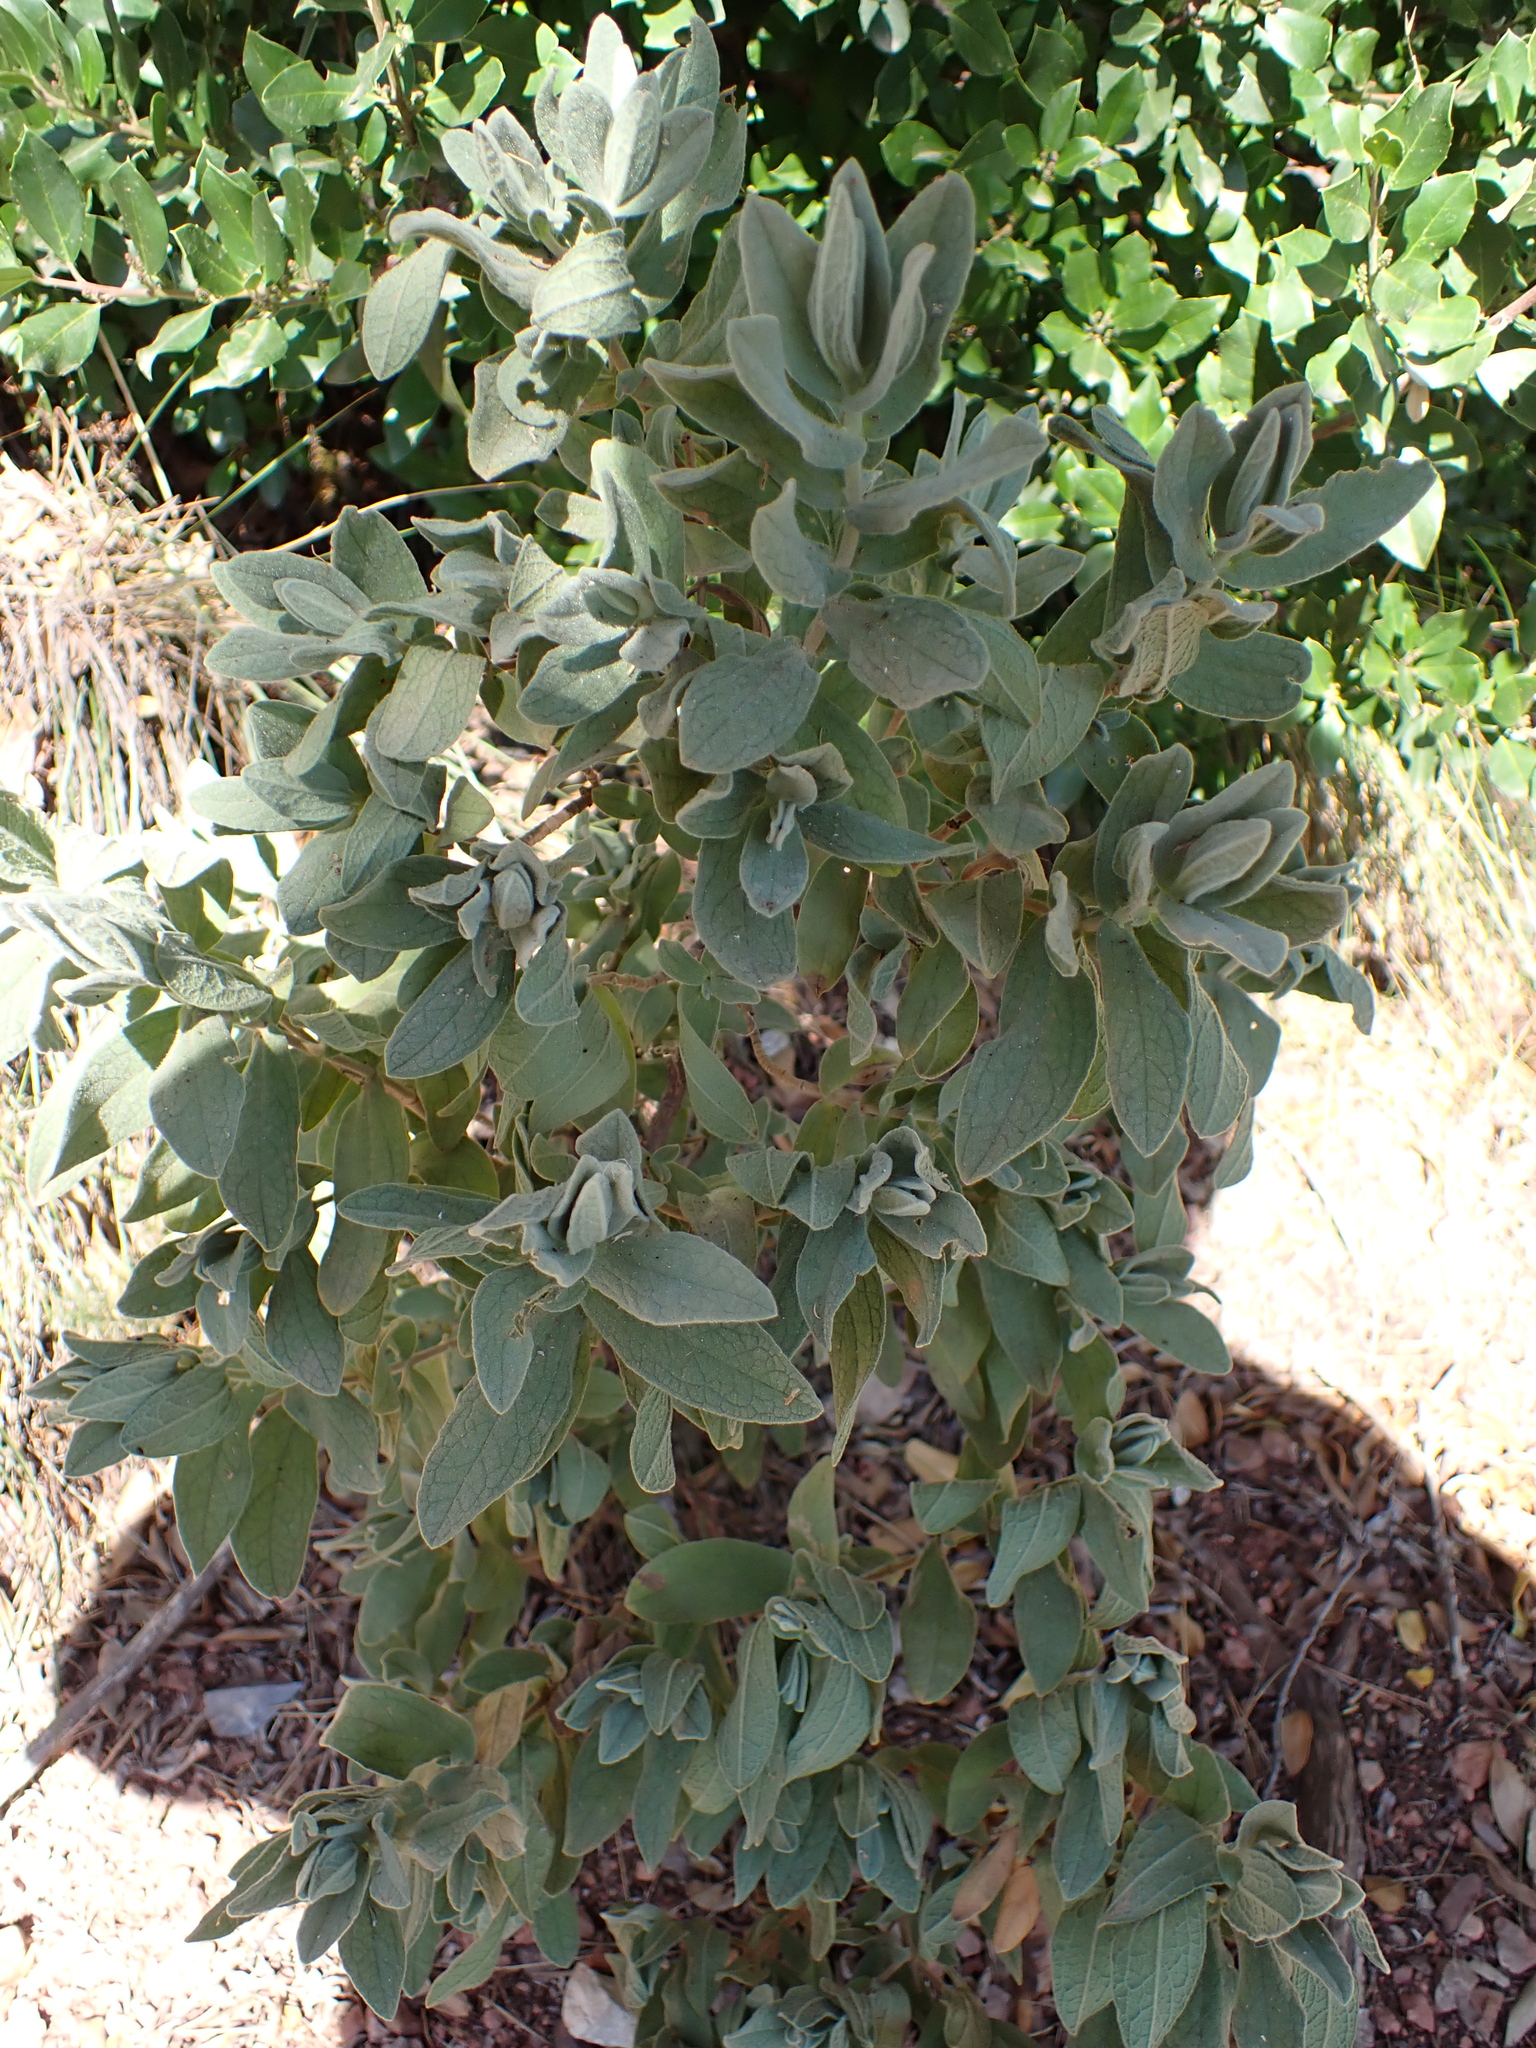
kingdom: Plantae
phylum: Tracheophyta
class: Magnoliopsida
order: Malvales
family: Cistaceae
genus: Cistus
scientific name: Cistus albidus
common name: White-leaf rock-rose
